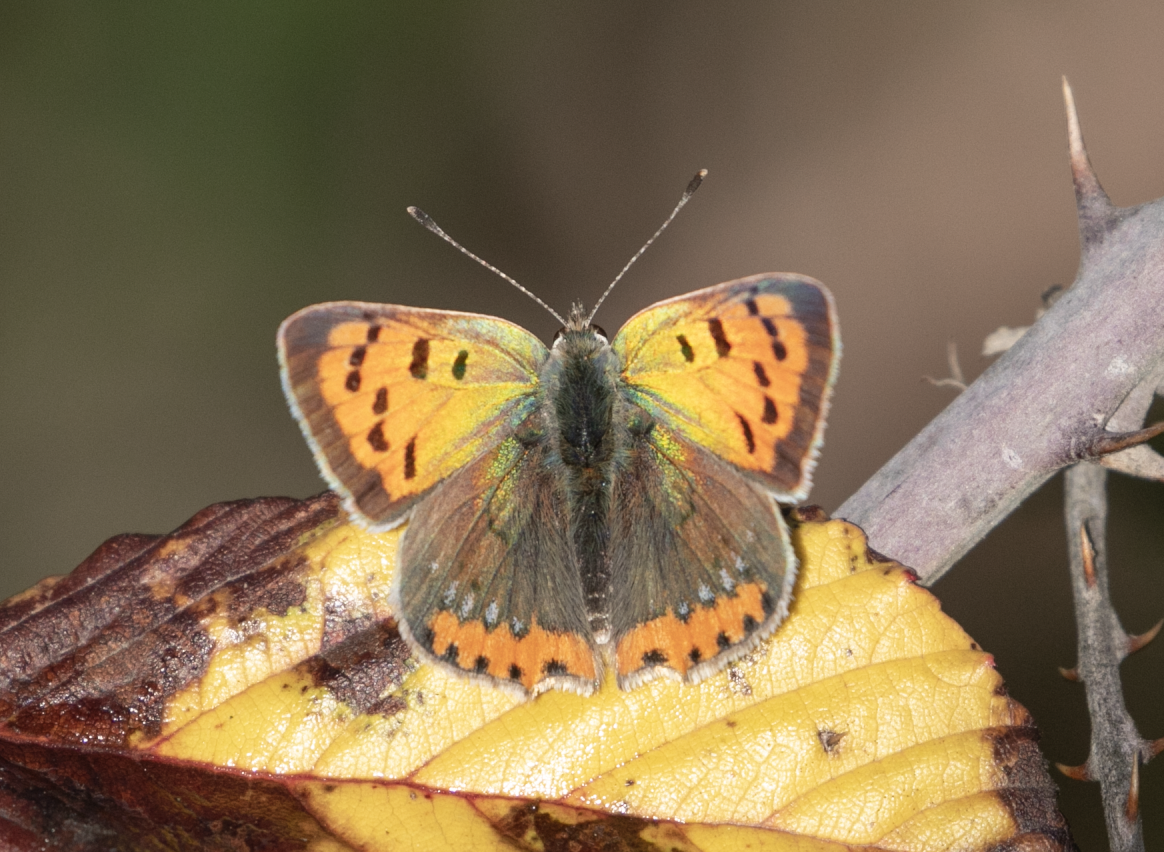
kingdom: Animalia
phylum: Arthropoda
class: Insecta
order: Lepidoptera
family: Lycaenidae
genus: Lycaena
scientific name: Lycaena phlaeas
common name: Small copper
